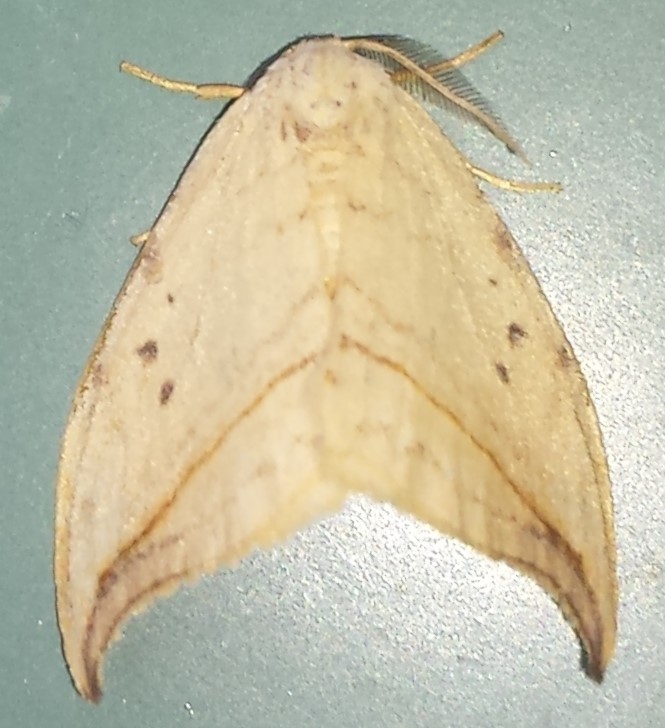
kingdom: Animalia
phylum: Arthropoda
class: Insecta
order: Lepidoptera
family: Drepanidae
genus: Drepana
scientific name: Drepana arcuata
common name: Arched hooktip moth
